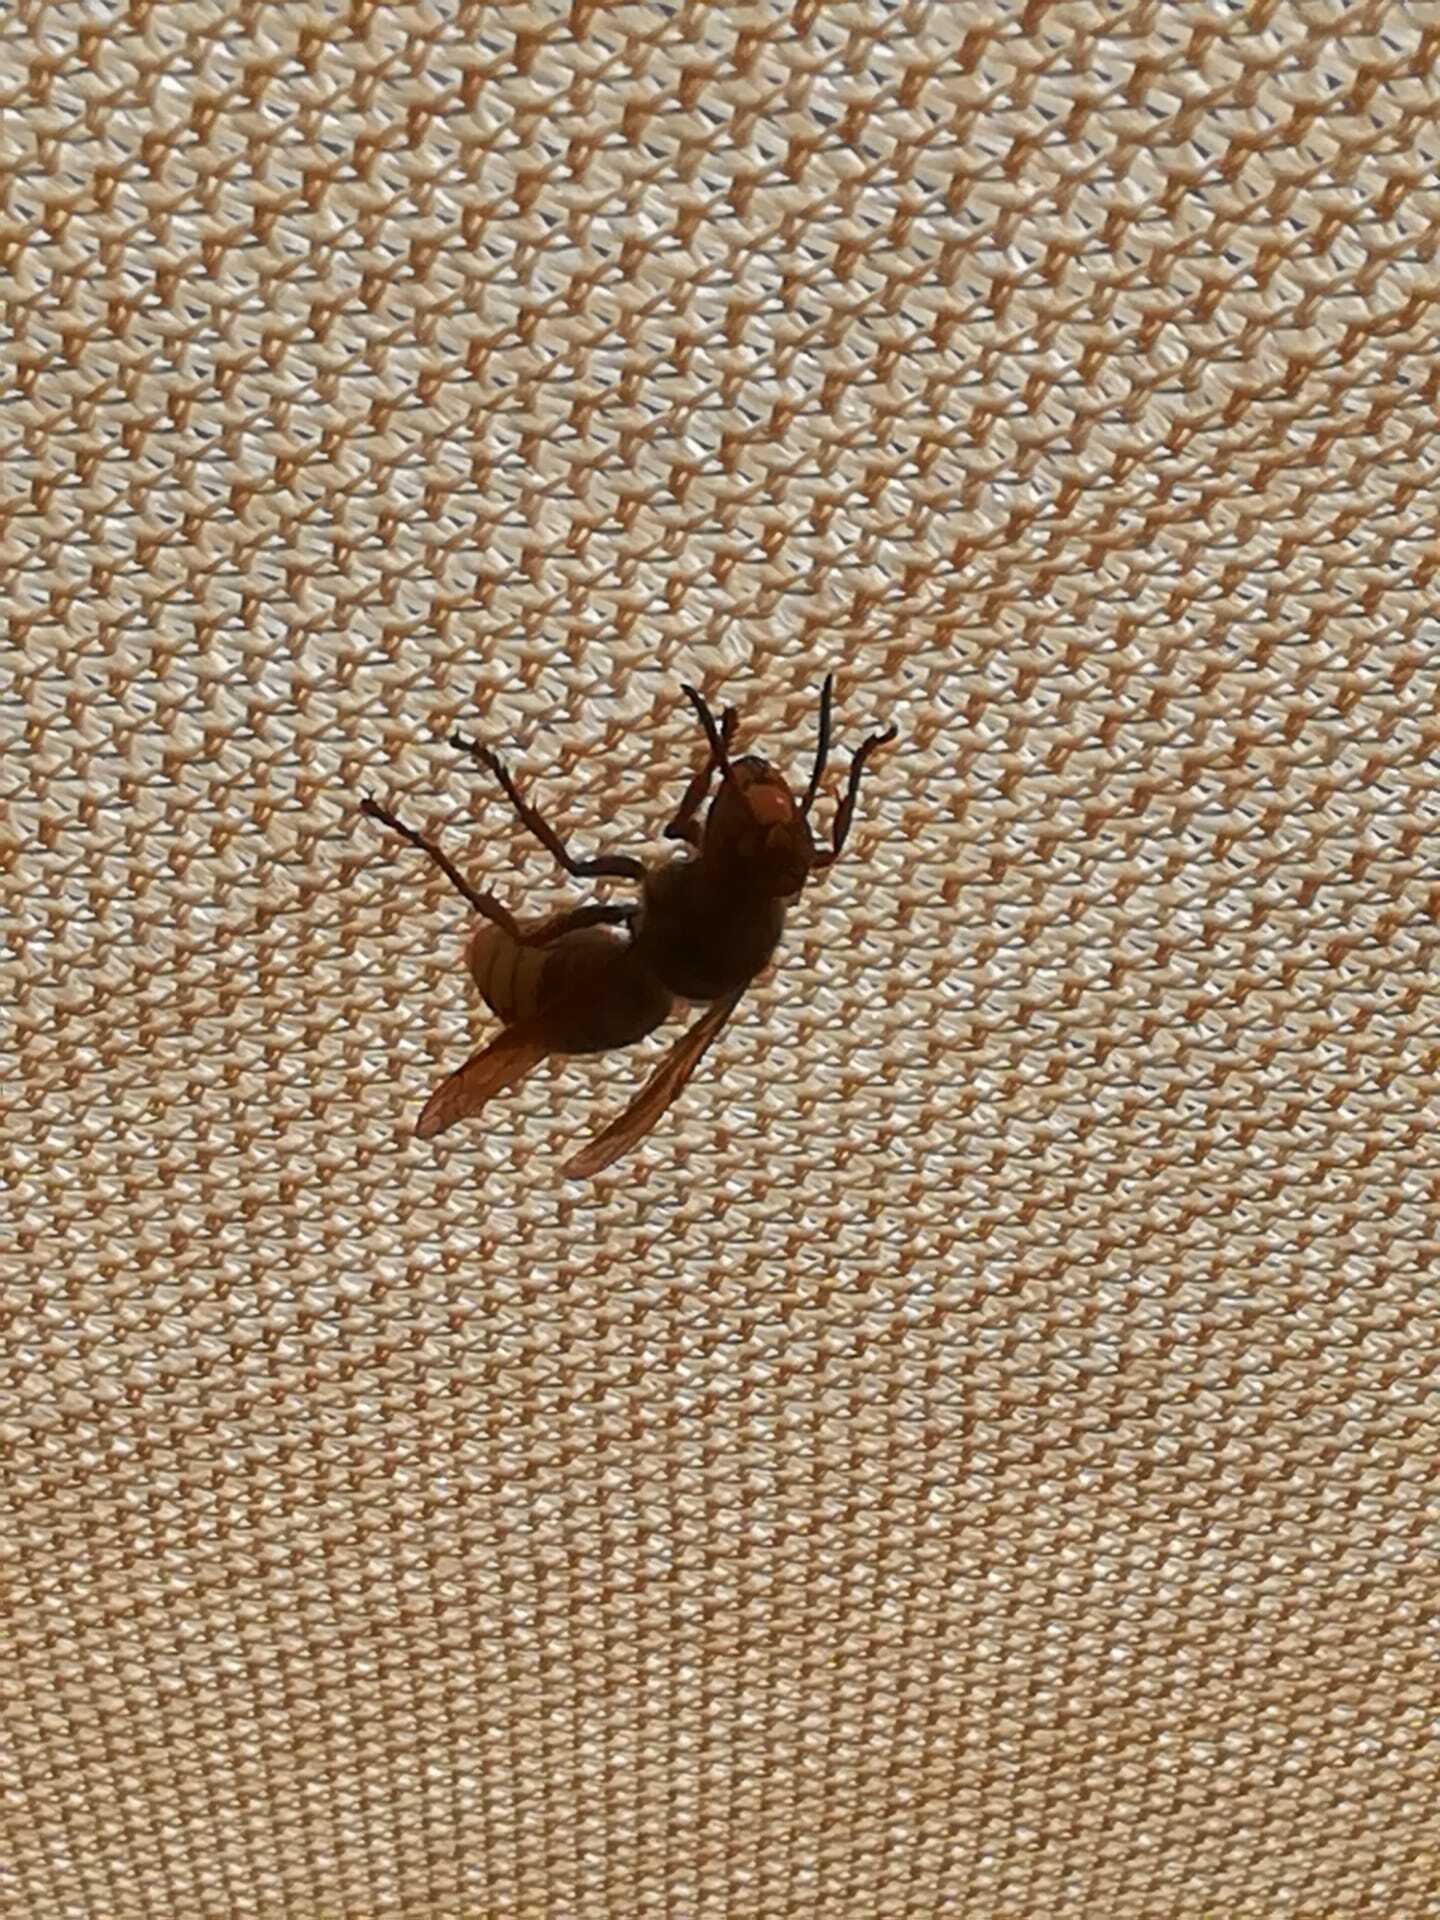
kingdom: Animalia
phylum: Arthropoda
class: Insecta
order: Hymenoptera
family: Vespidae
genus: Vespa
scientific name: Vespa crabro
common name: Hornet
